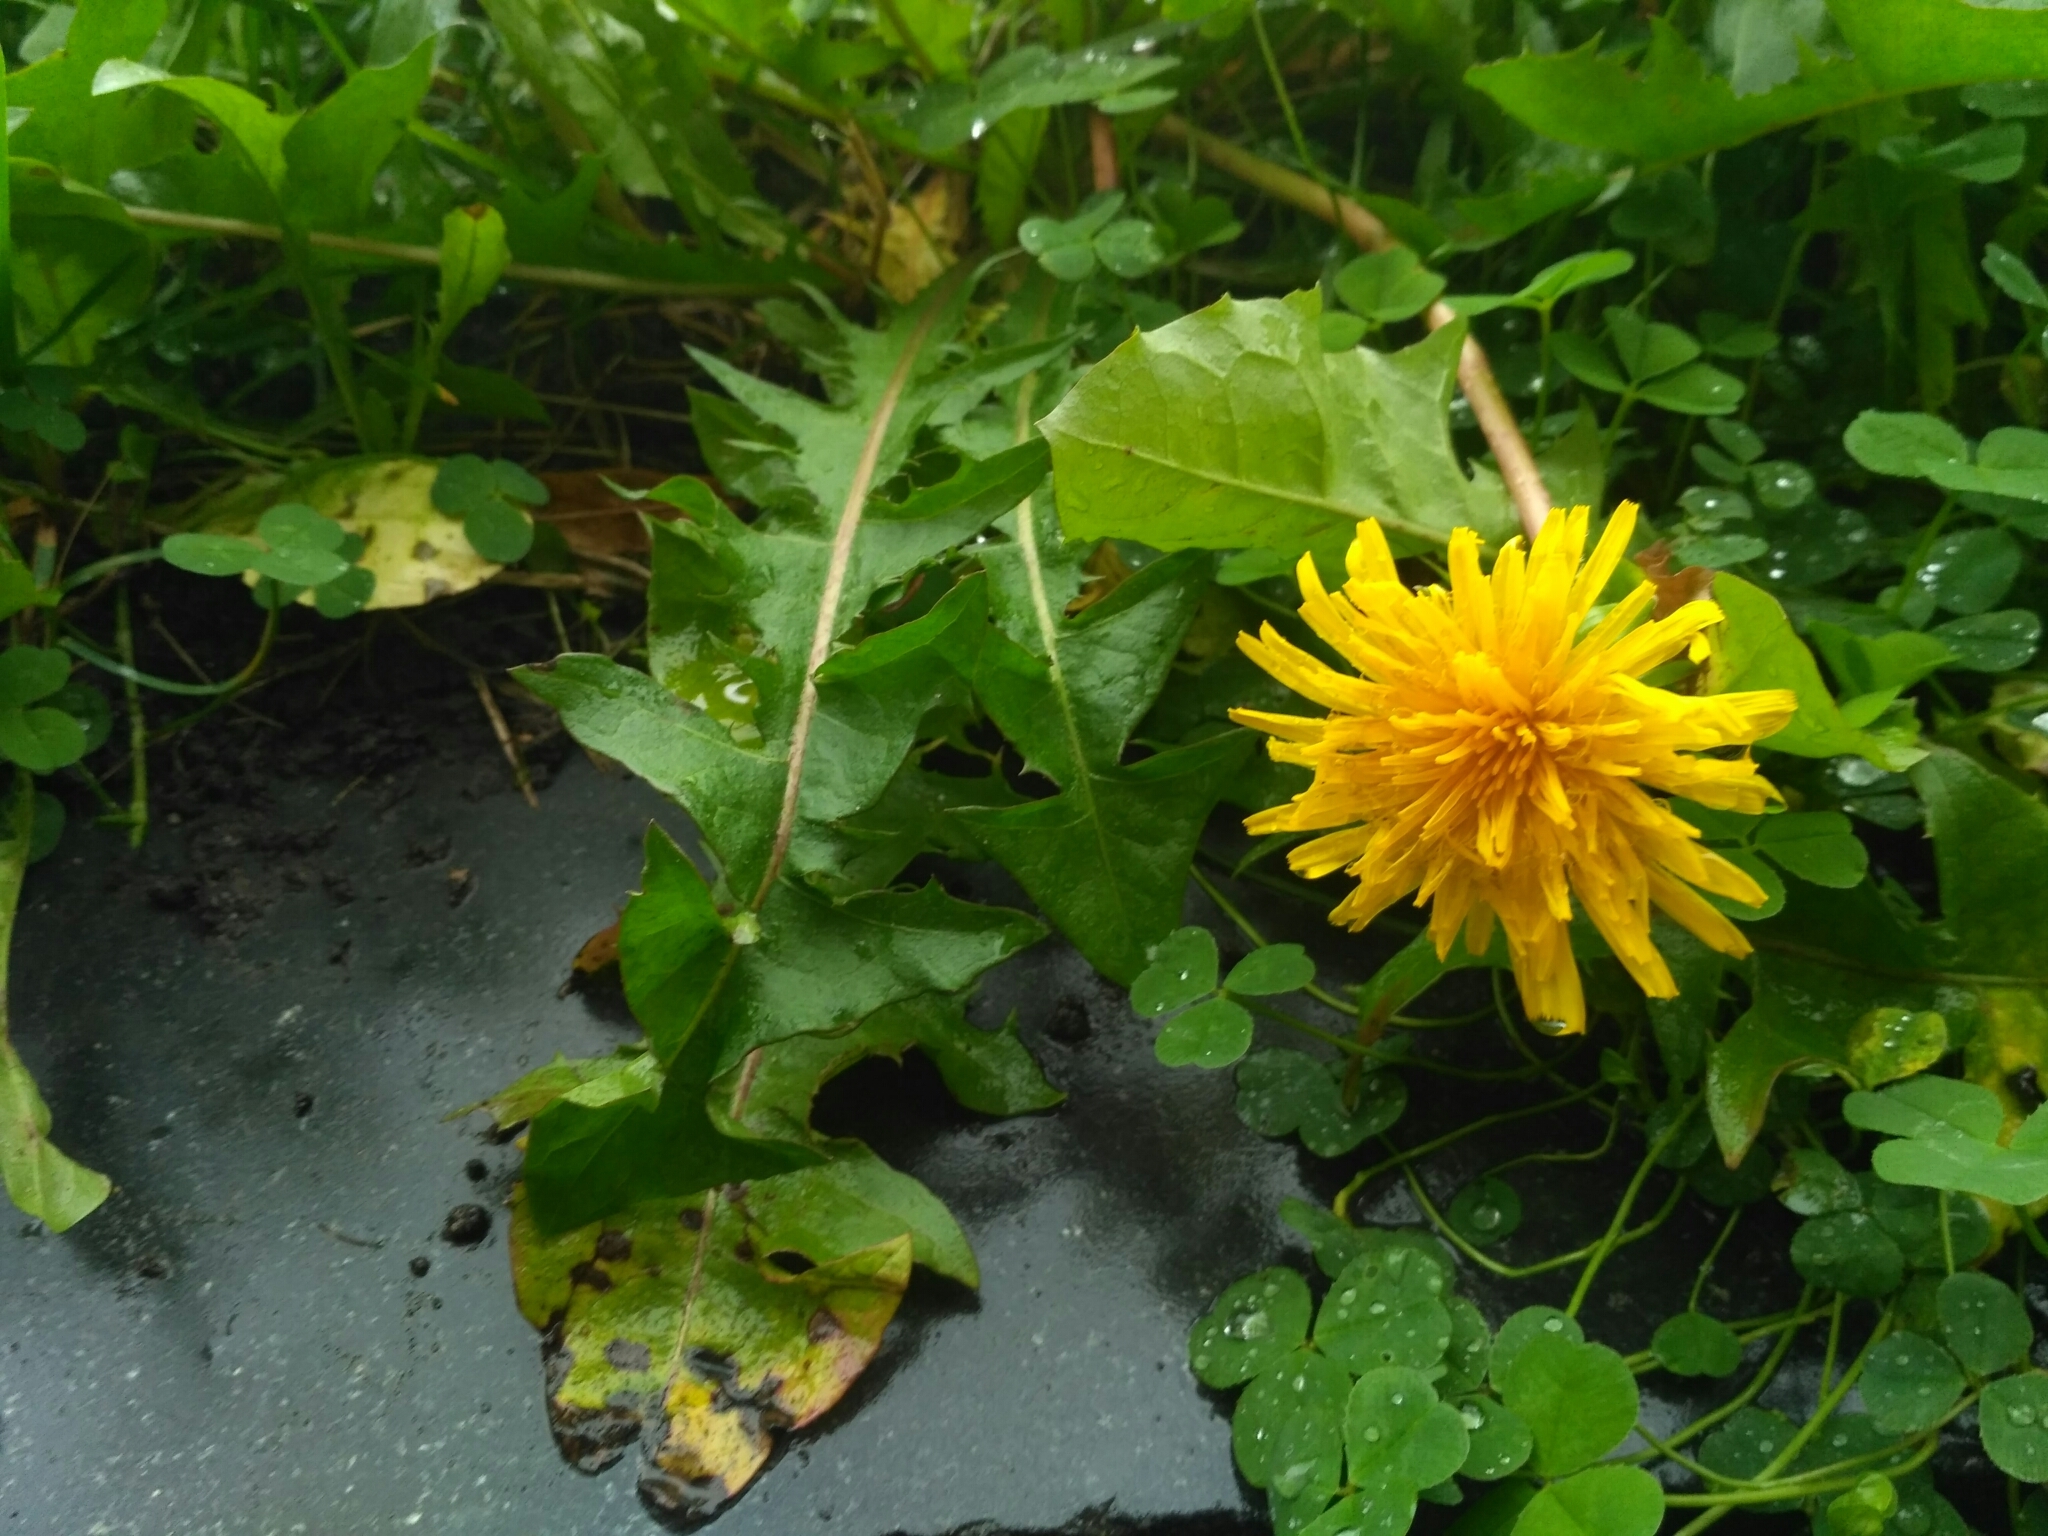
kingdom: Plantae
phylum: Tracheophyta
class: Magnoliopsida
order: Asterales
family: Asteraceae
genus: Taraxacum
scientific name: Taraxacum officinale
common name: Common dandelion
